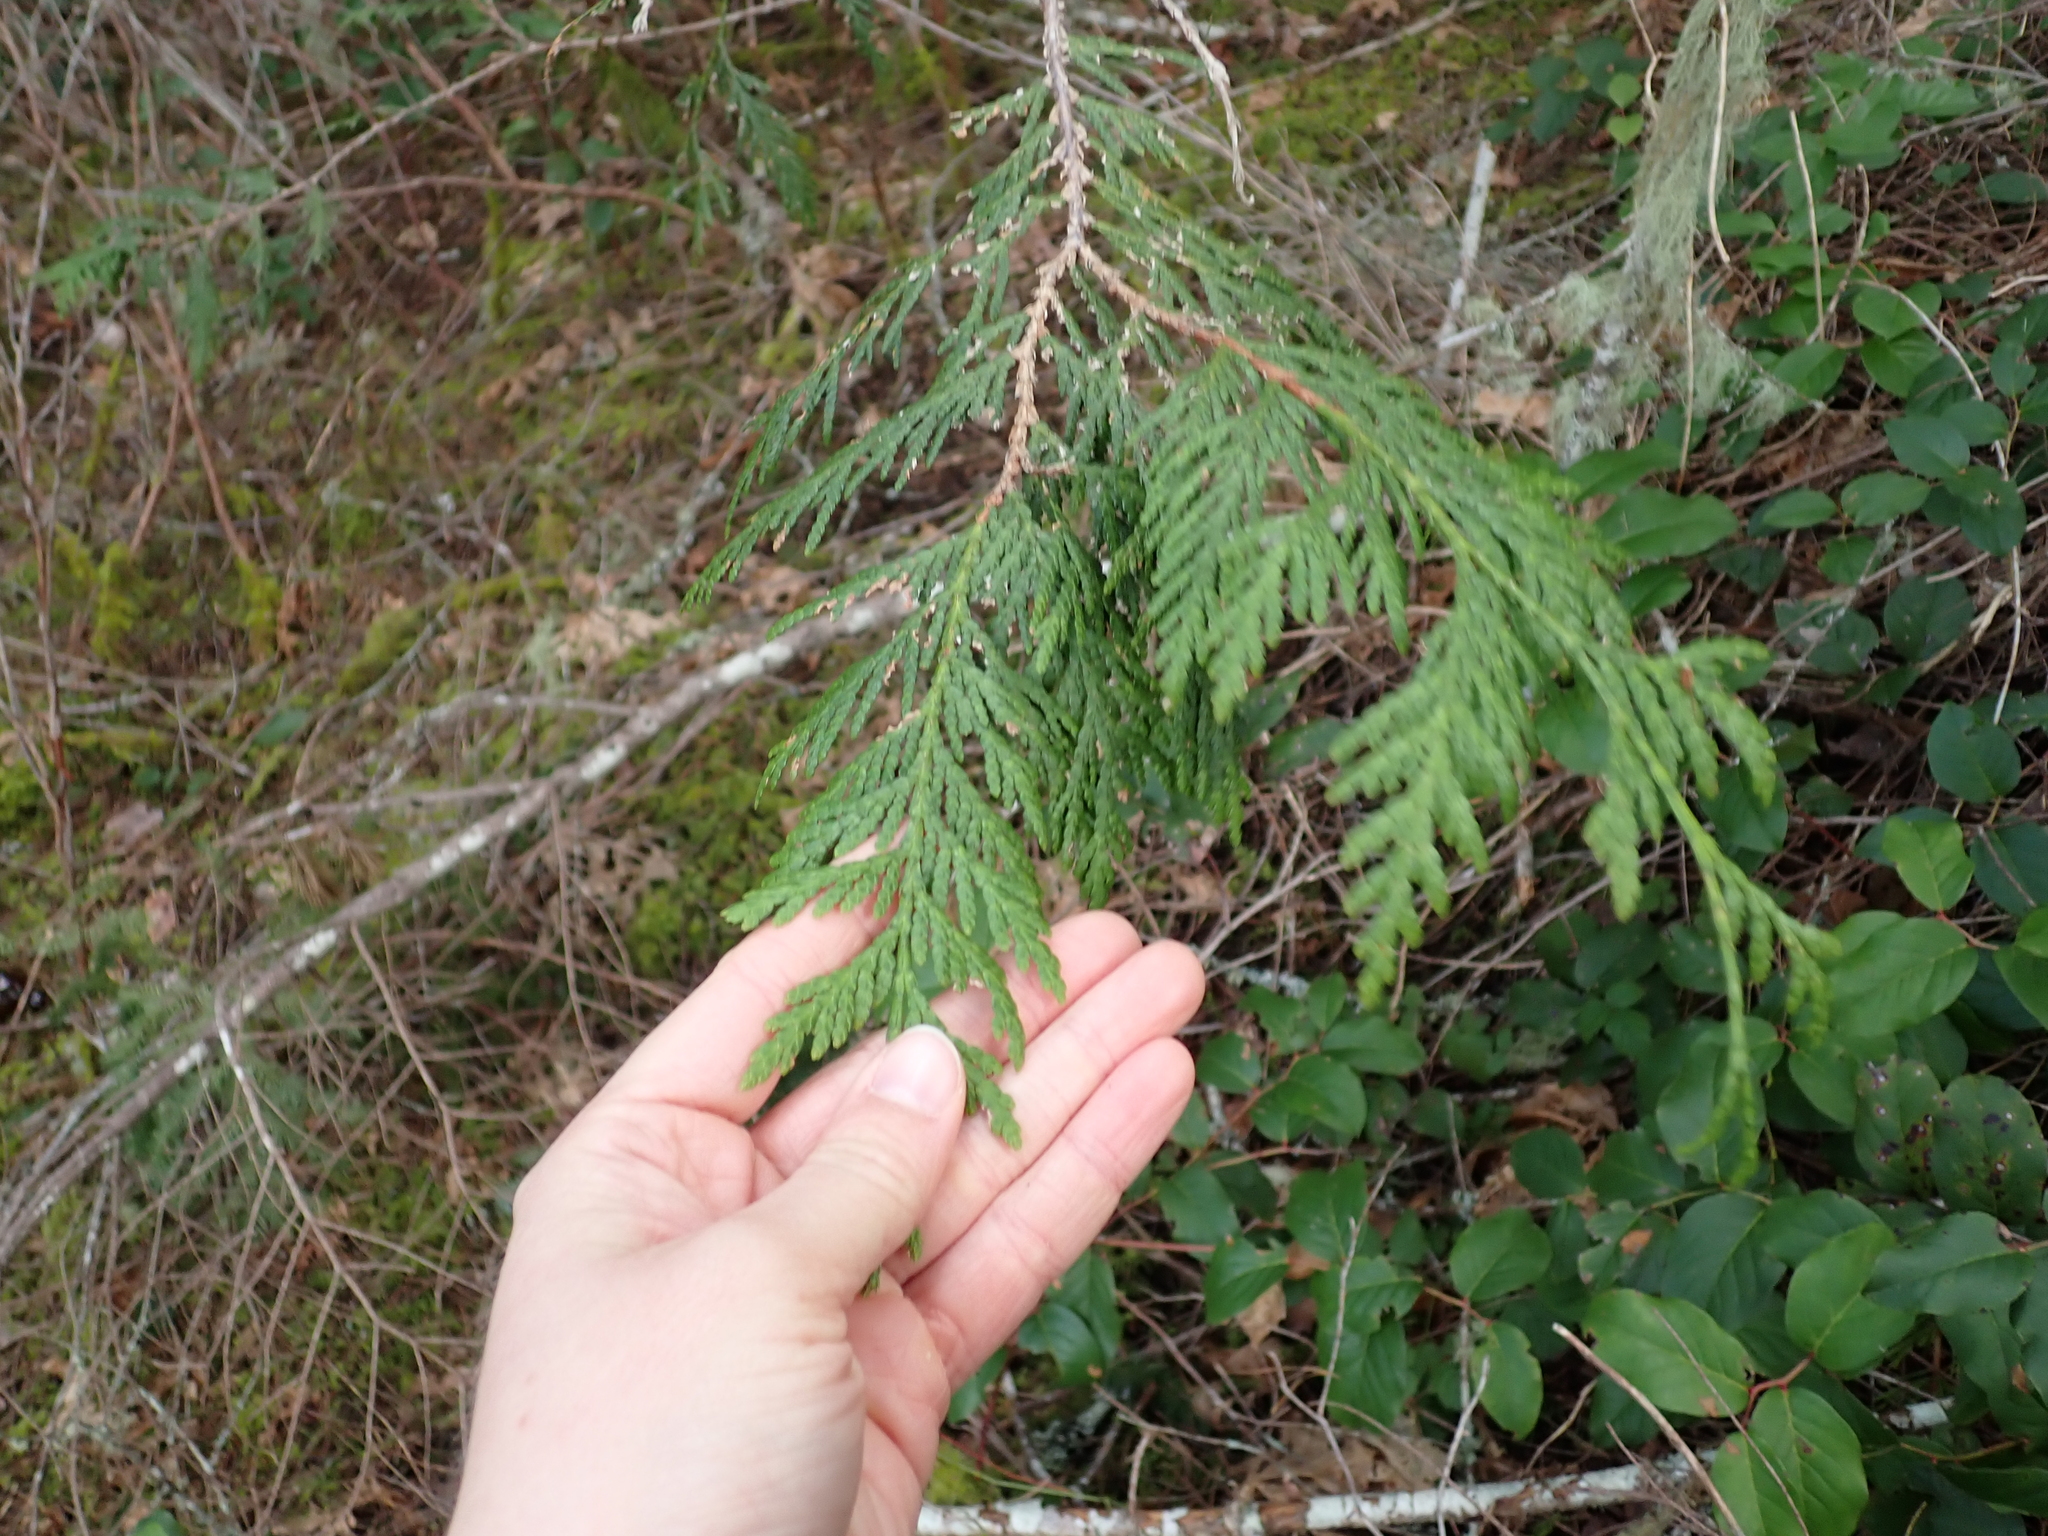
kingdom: Plantae
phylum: Tracheophyta
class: Pinopsida
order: Pinales
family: Cupressaceae
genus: Thuja
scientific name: Thuja plicata
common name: Western red-cedar
